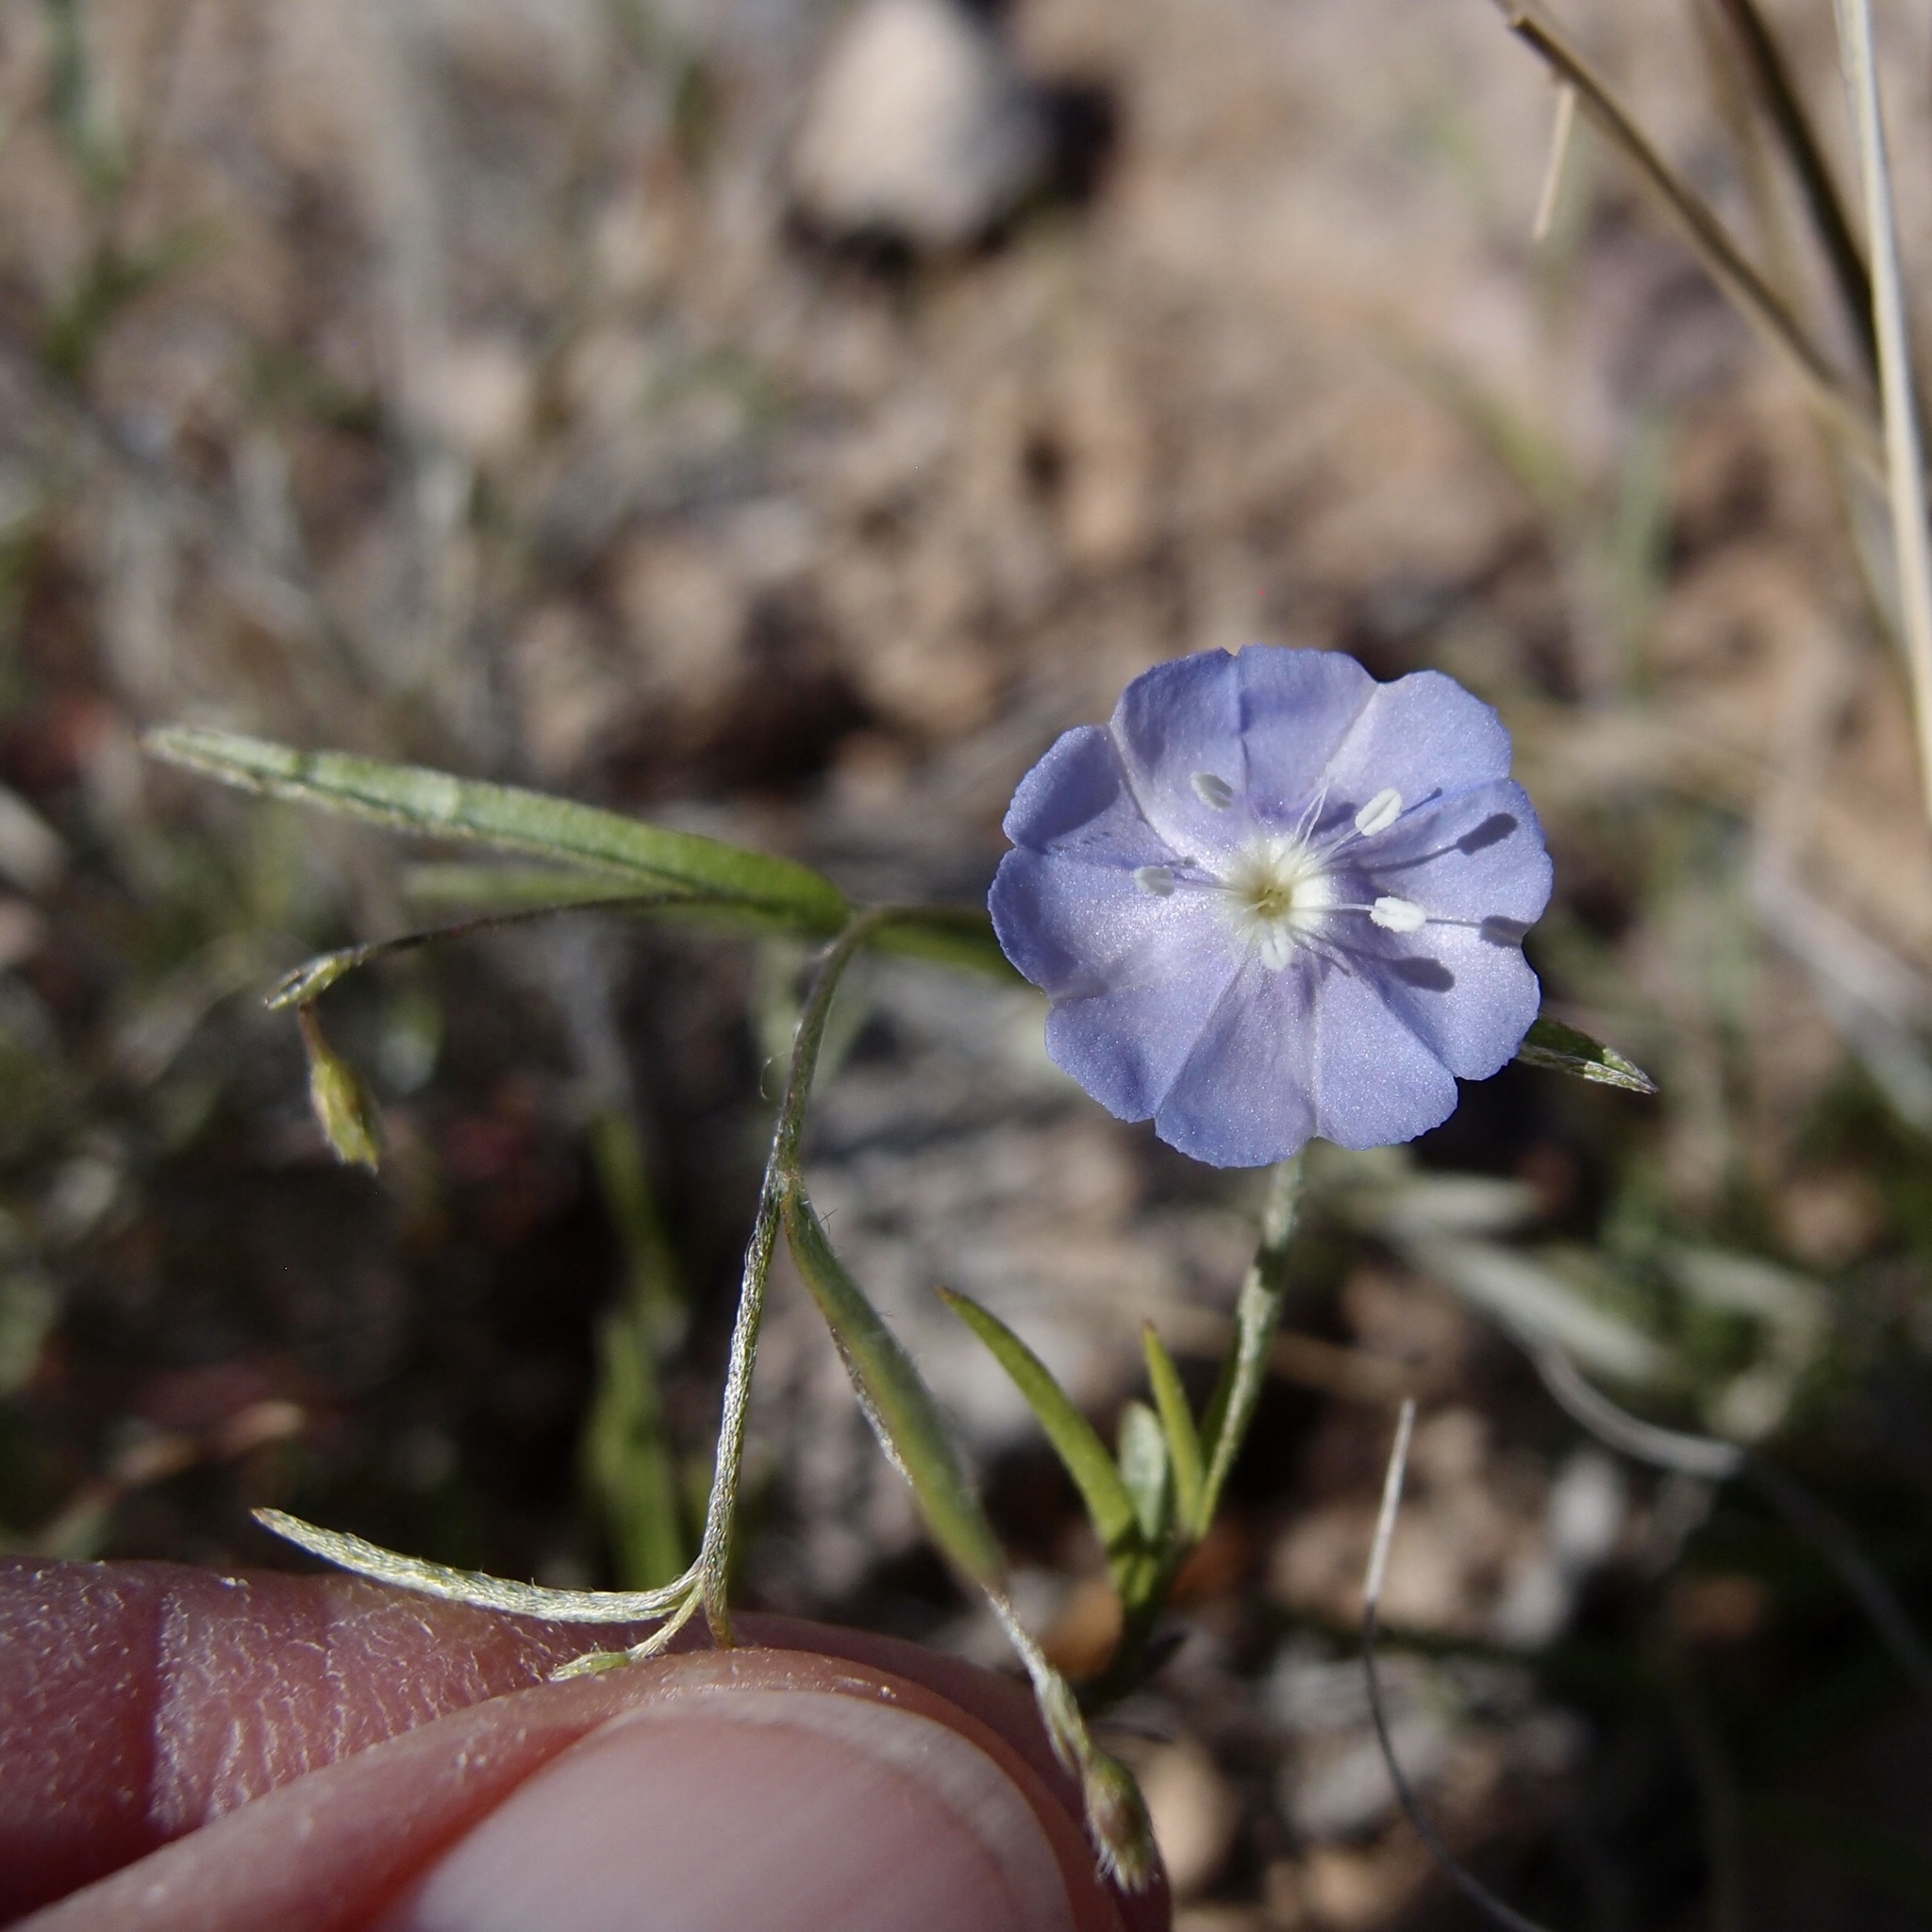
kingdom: Plantae
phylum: Tracheophyta
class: Magnoliopsida
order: Solanales
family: Convolvulaceae
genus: Evolvulus
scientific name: Evolvulus alsinoides
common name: Slender dwarf morning-glory
